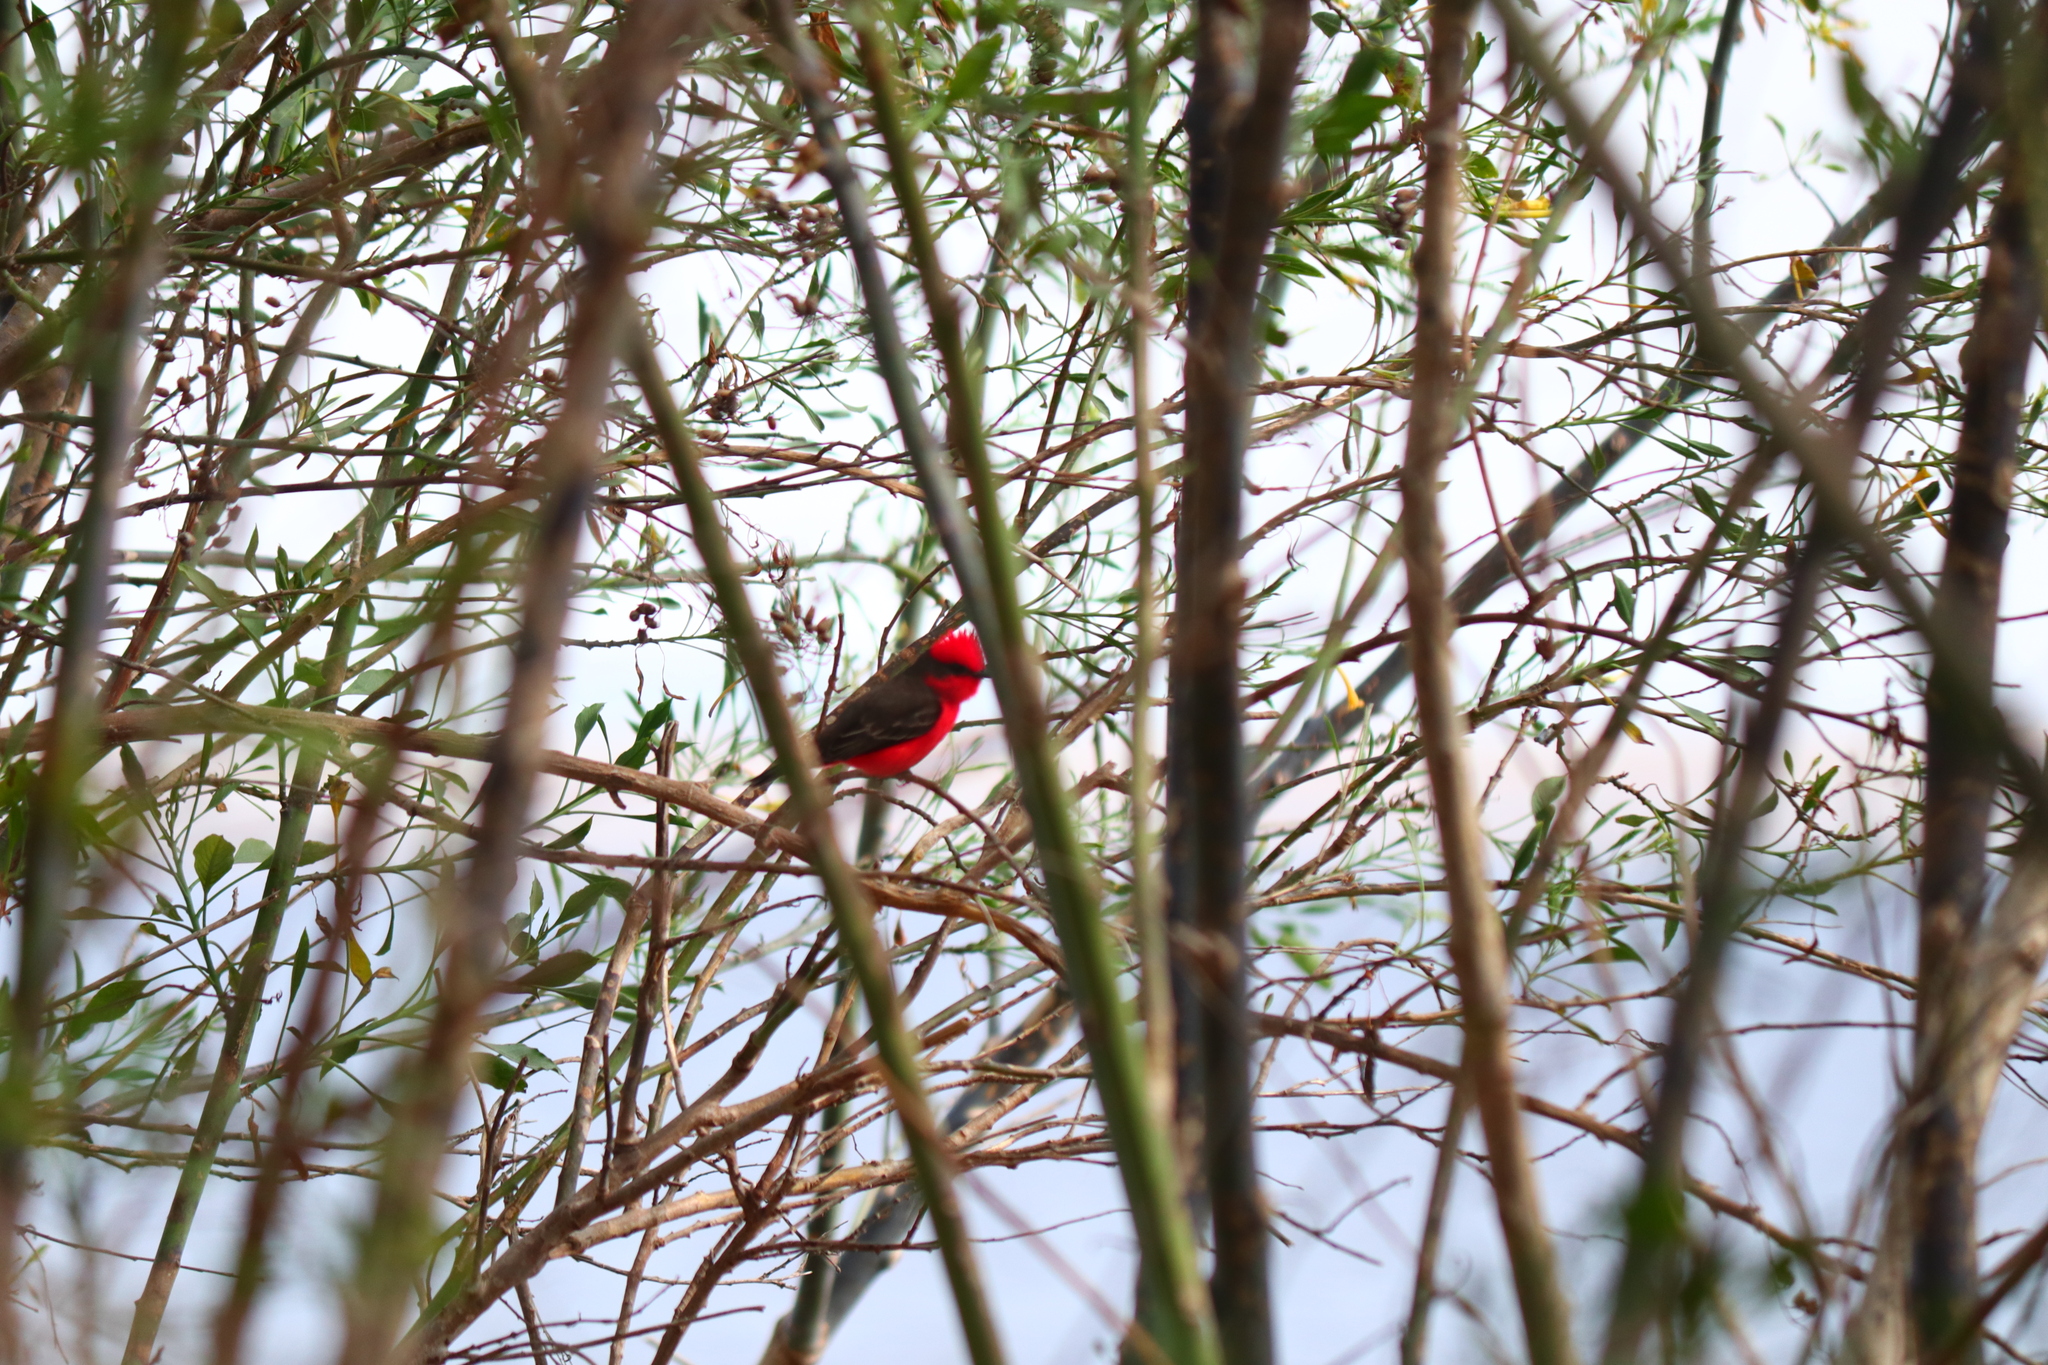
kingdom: Animalia
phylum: Chordata
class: Aves
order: Passeriformes
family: Tyrannidae
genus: Pyrocephalus
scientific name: Pyrocephalus rubinus
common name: Vermilion flycatcher
